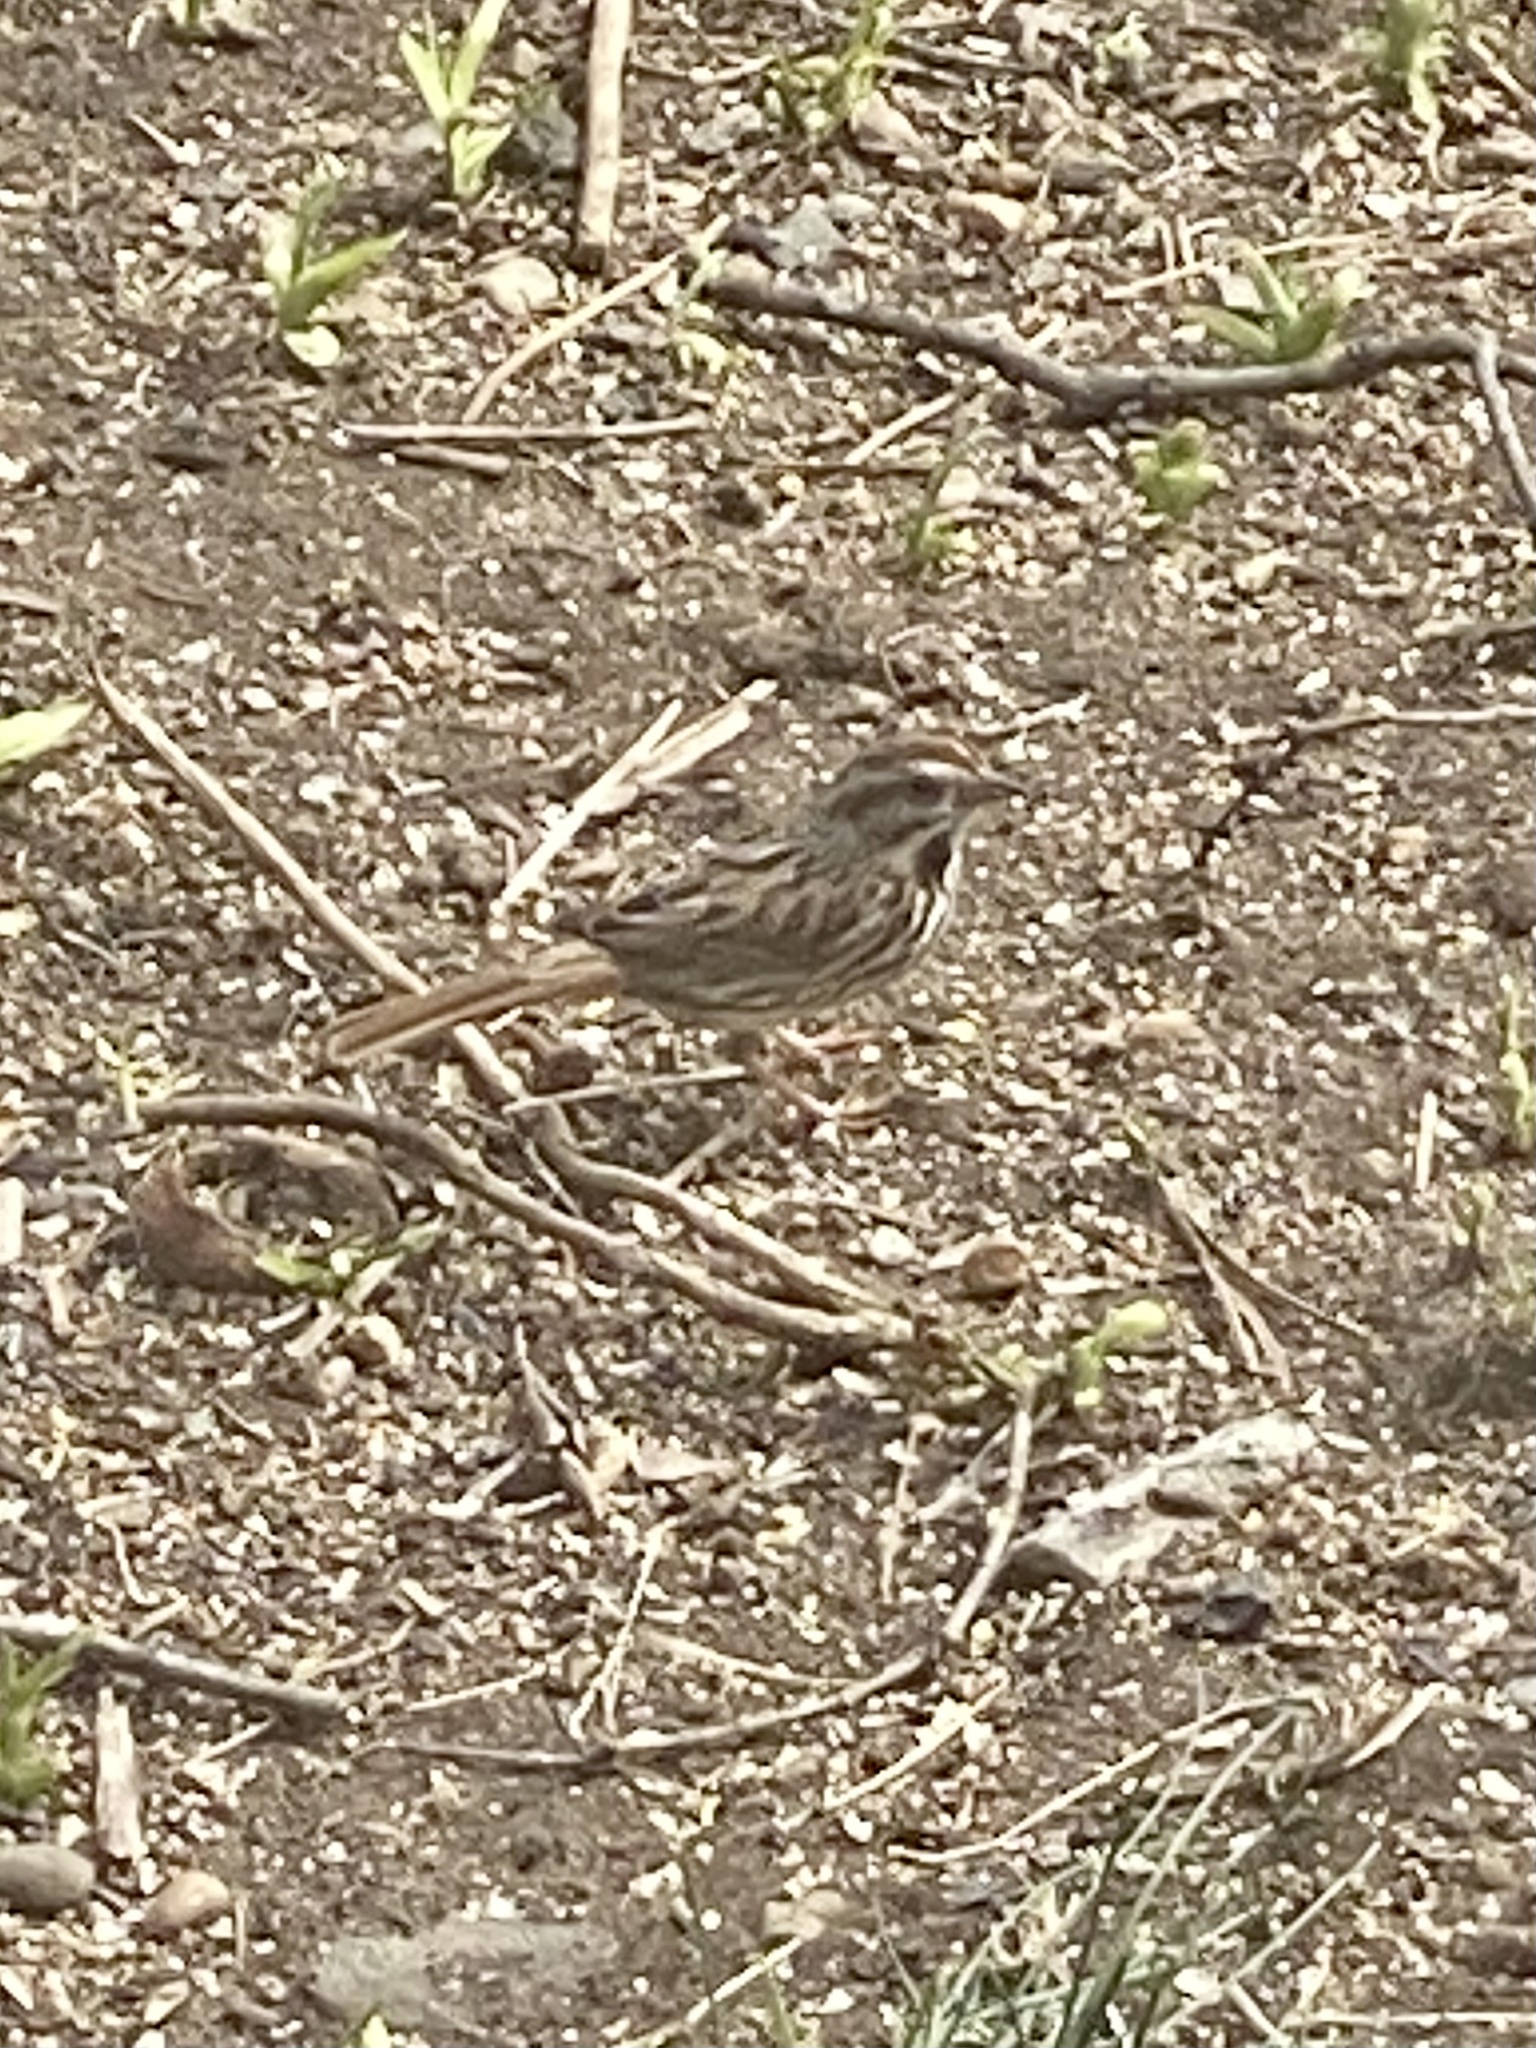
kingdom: Animalia
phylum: Chordata
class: Aves
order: Passeriformes
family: Passerellidae
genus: Melospiza
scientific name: Melospiza melodia
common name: Song sparrow
